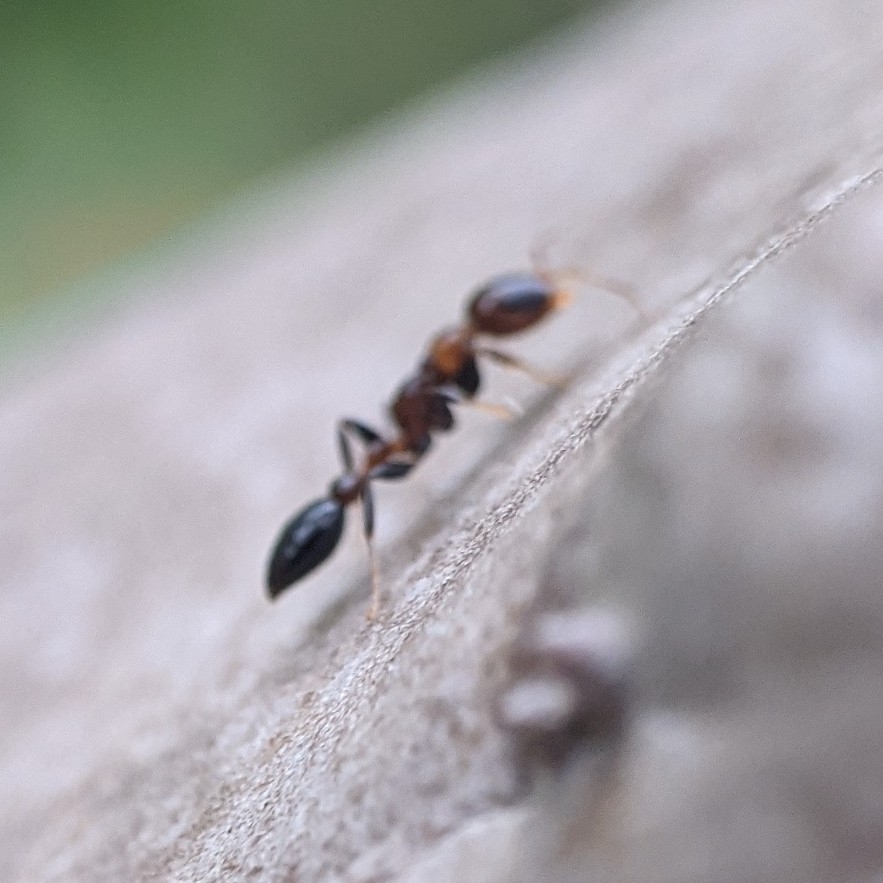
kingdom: Animalia
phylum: Arthropoda
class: Insecta
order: Hymenoptera
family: Formicidae
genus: Pseudomyrmex
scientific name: Pseudomyrmex ejectus
